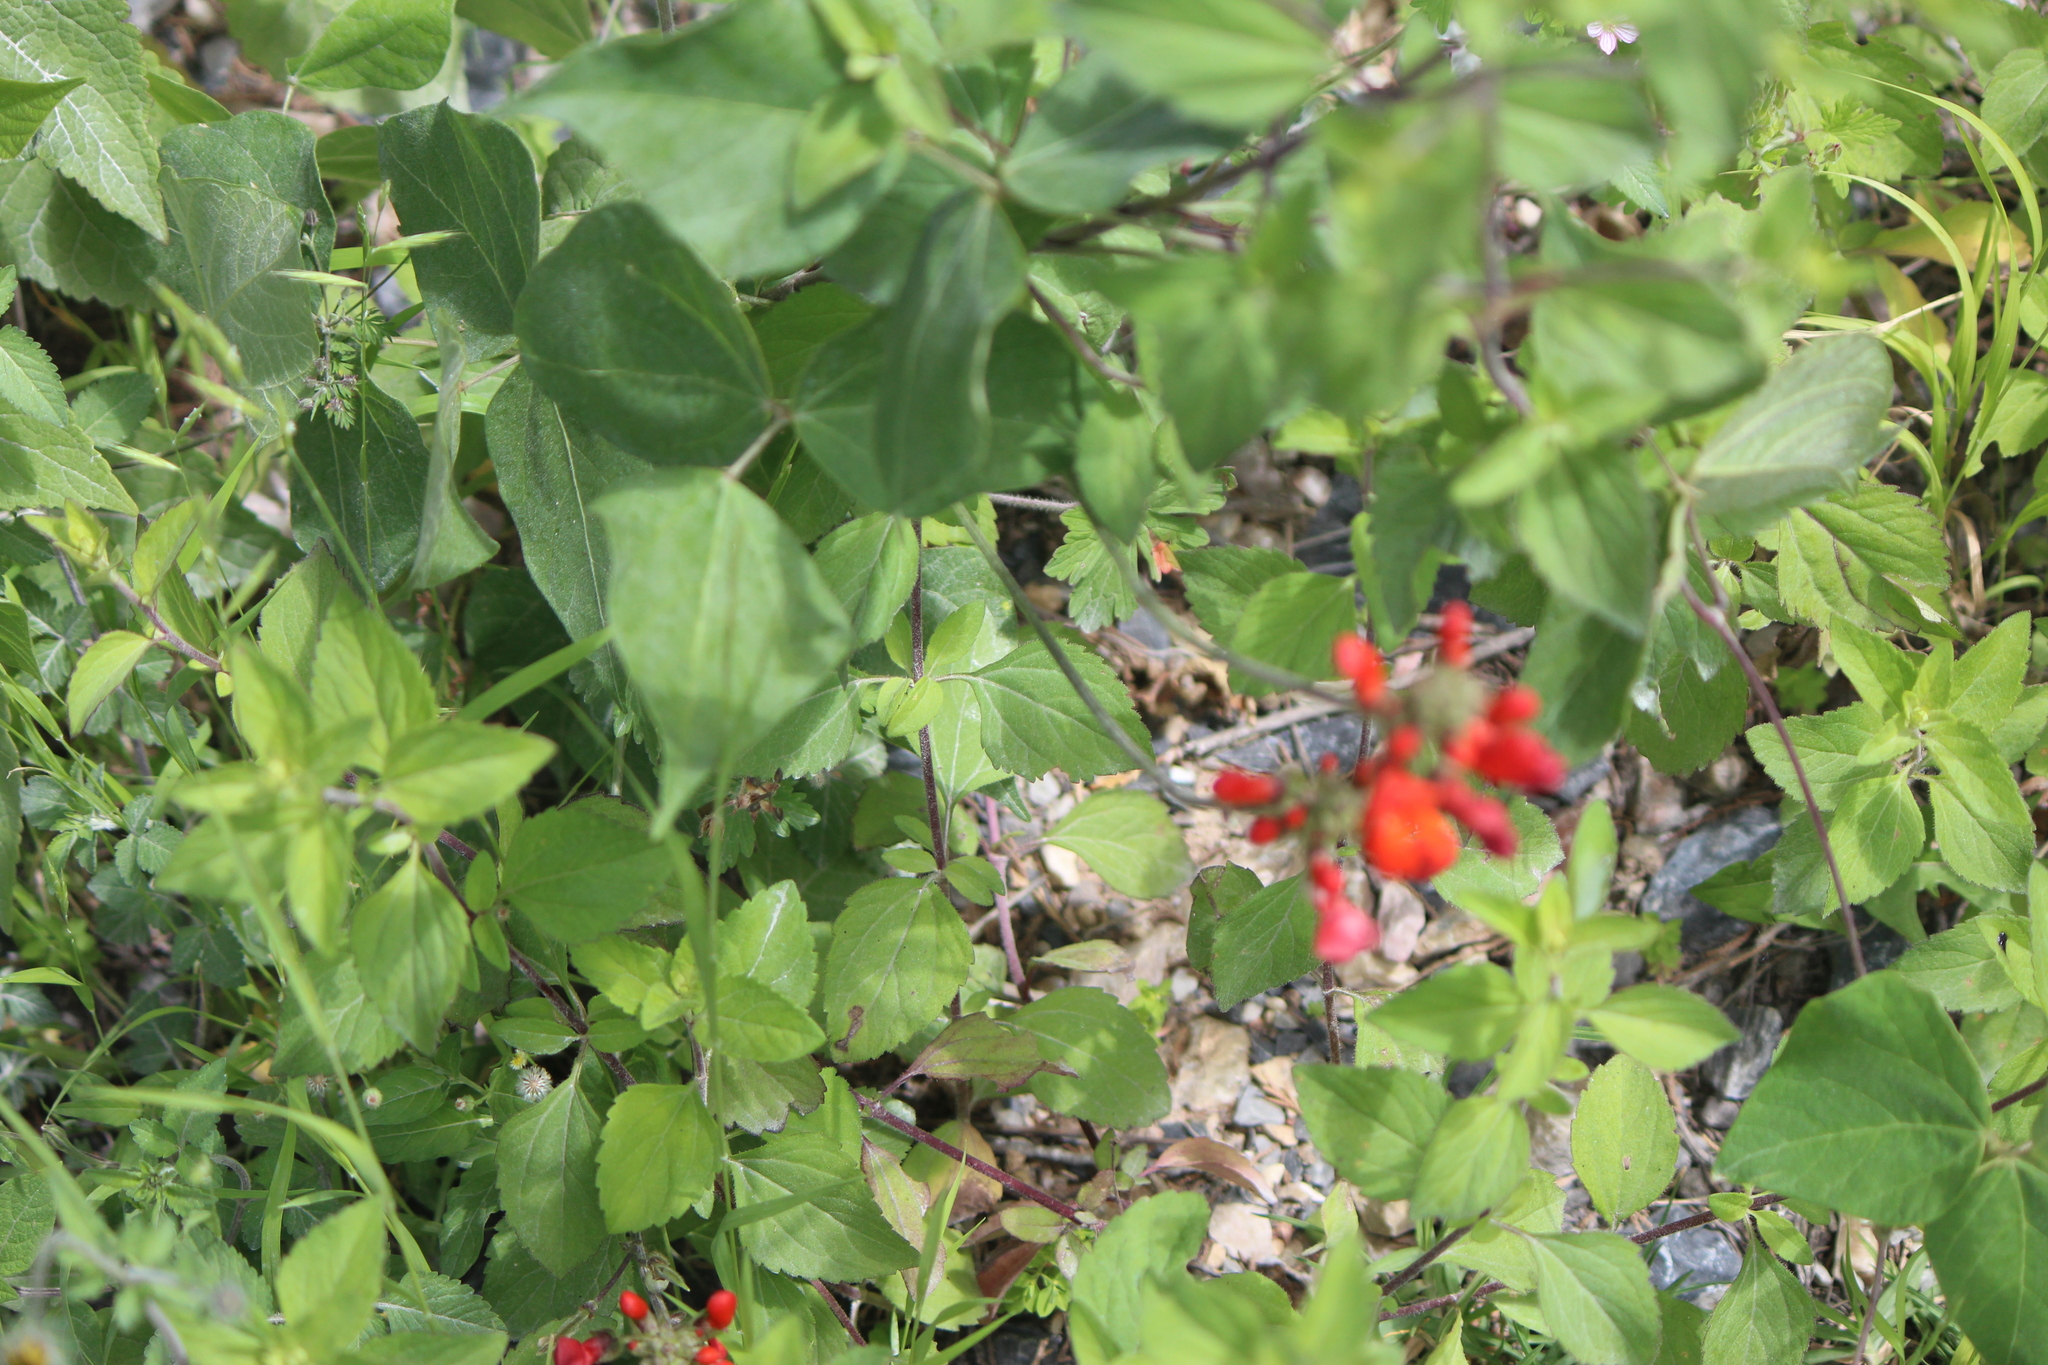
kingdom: Plantae
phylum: Tracheophyta
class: Magnoliopsida
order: Fabales
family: Fabaceae
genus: Phaseolus
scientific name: Phaseolus coccineus
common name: Runner bean
